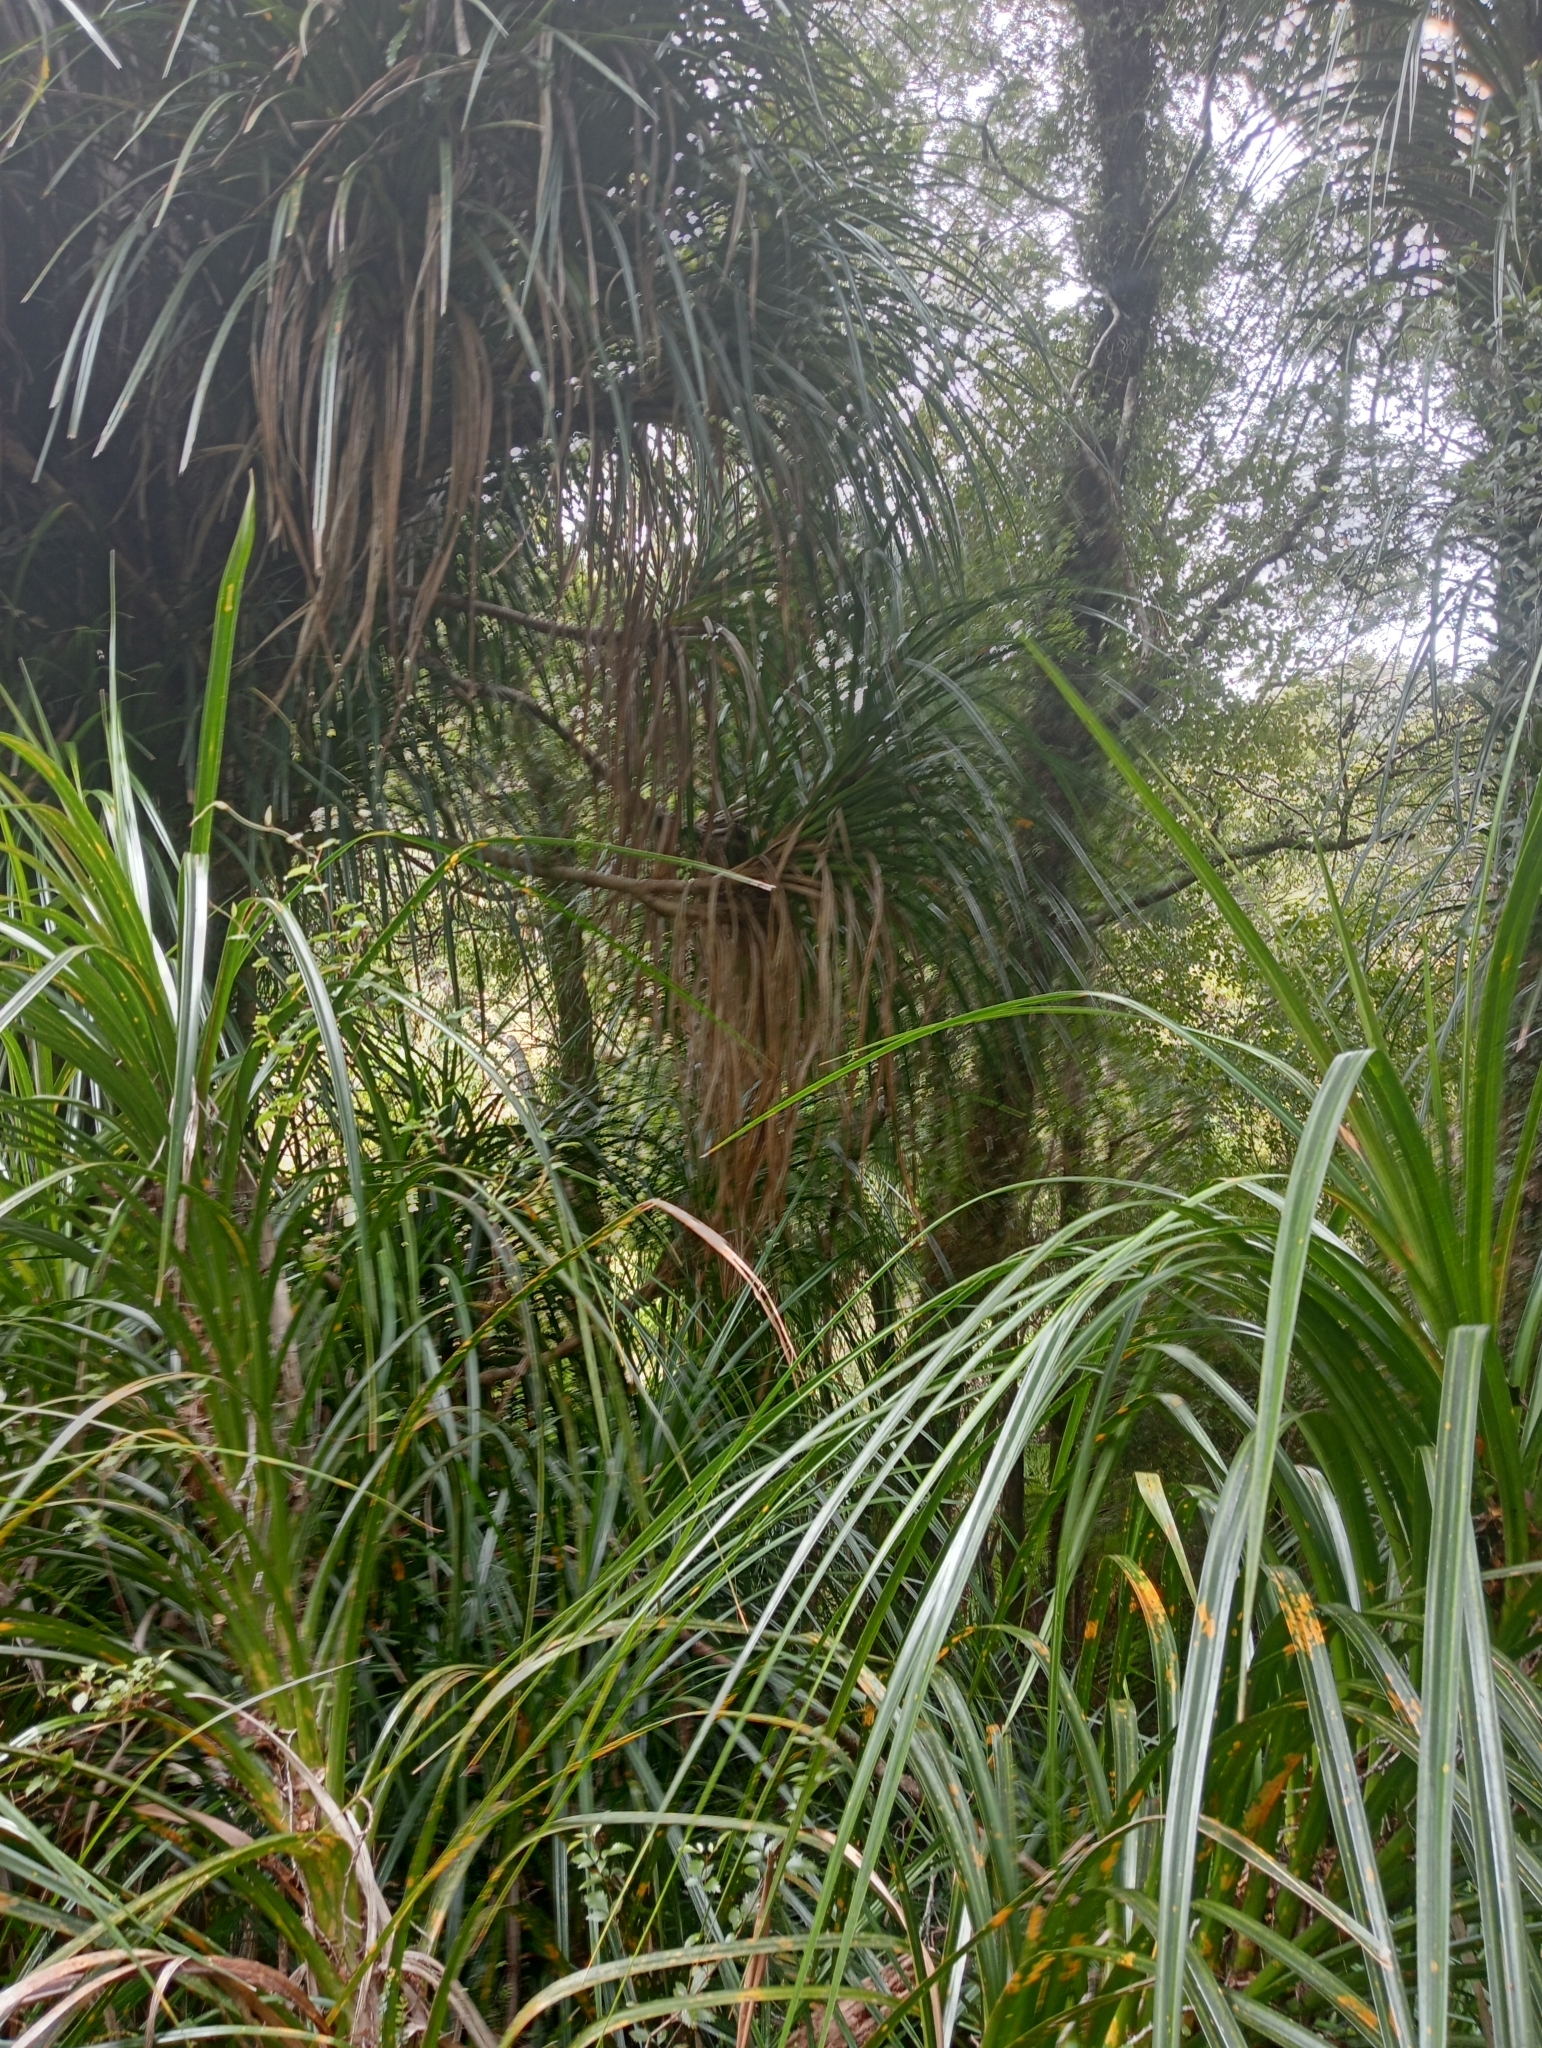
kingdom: Plantae
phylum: Tracheophyta
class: Liliopsida
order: Pandanales
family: Pandanaceae
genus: Freycinetia
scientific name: Freycinetia banksii
